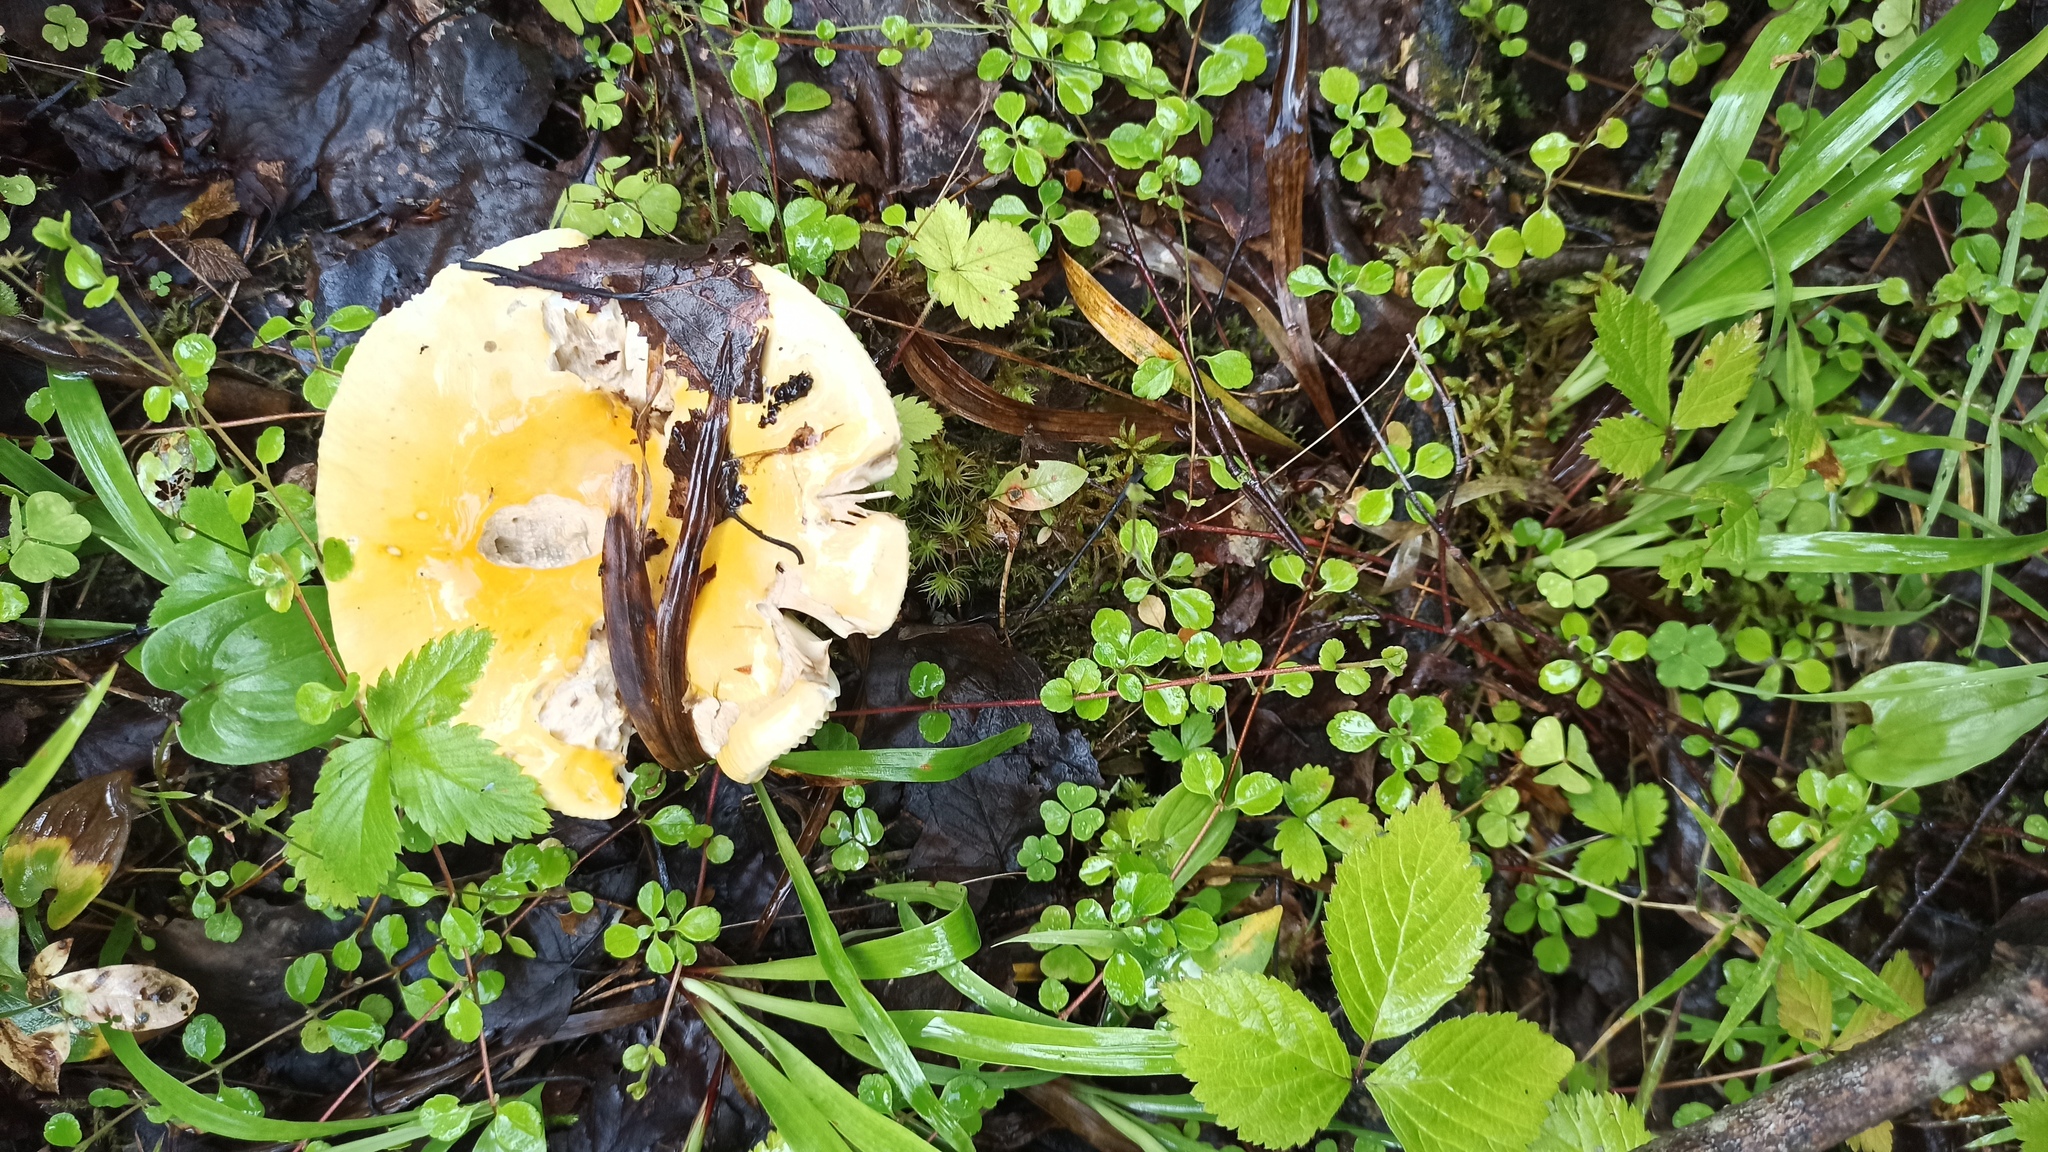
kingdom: Fungi
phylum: Basidiomycota
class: Agaricomycetes
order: Russulales
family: Russulaceae
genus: Russula
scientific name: Russula claroflava
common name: The yellow swamp brittlegill
